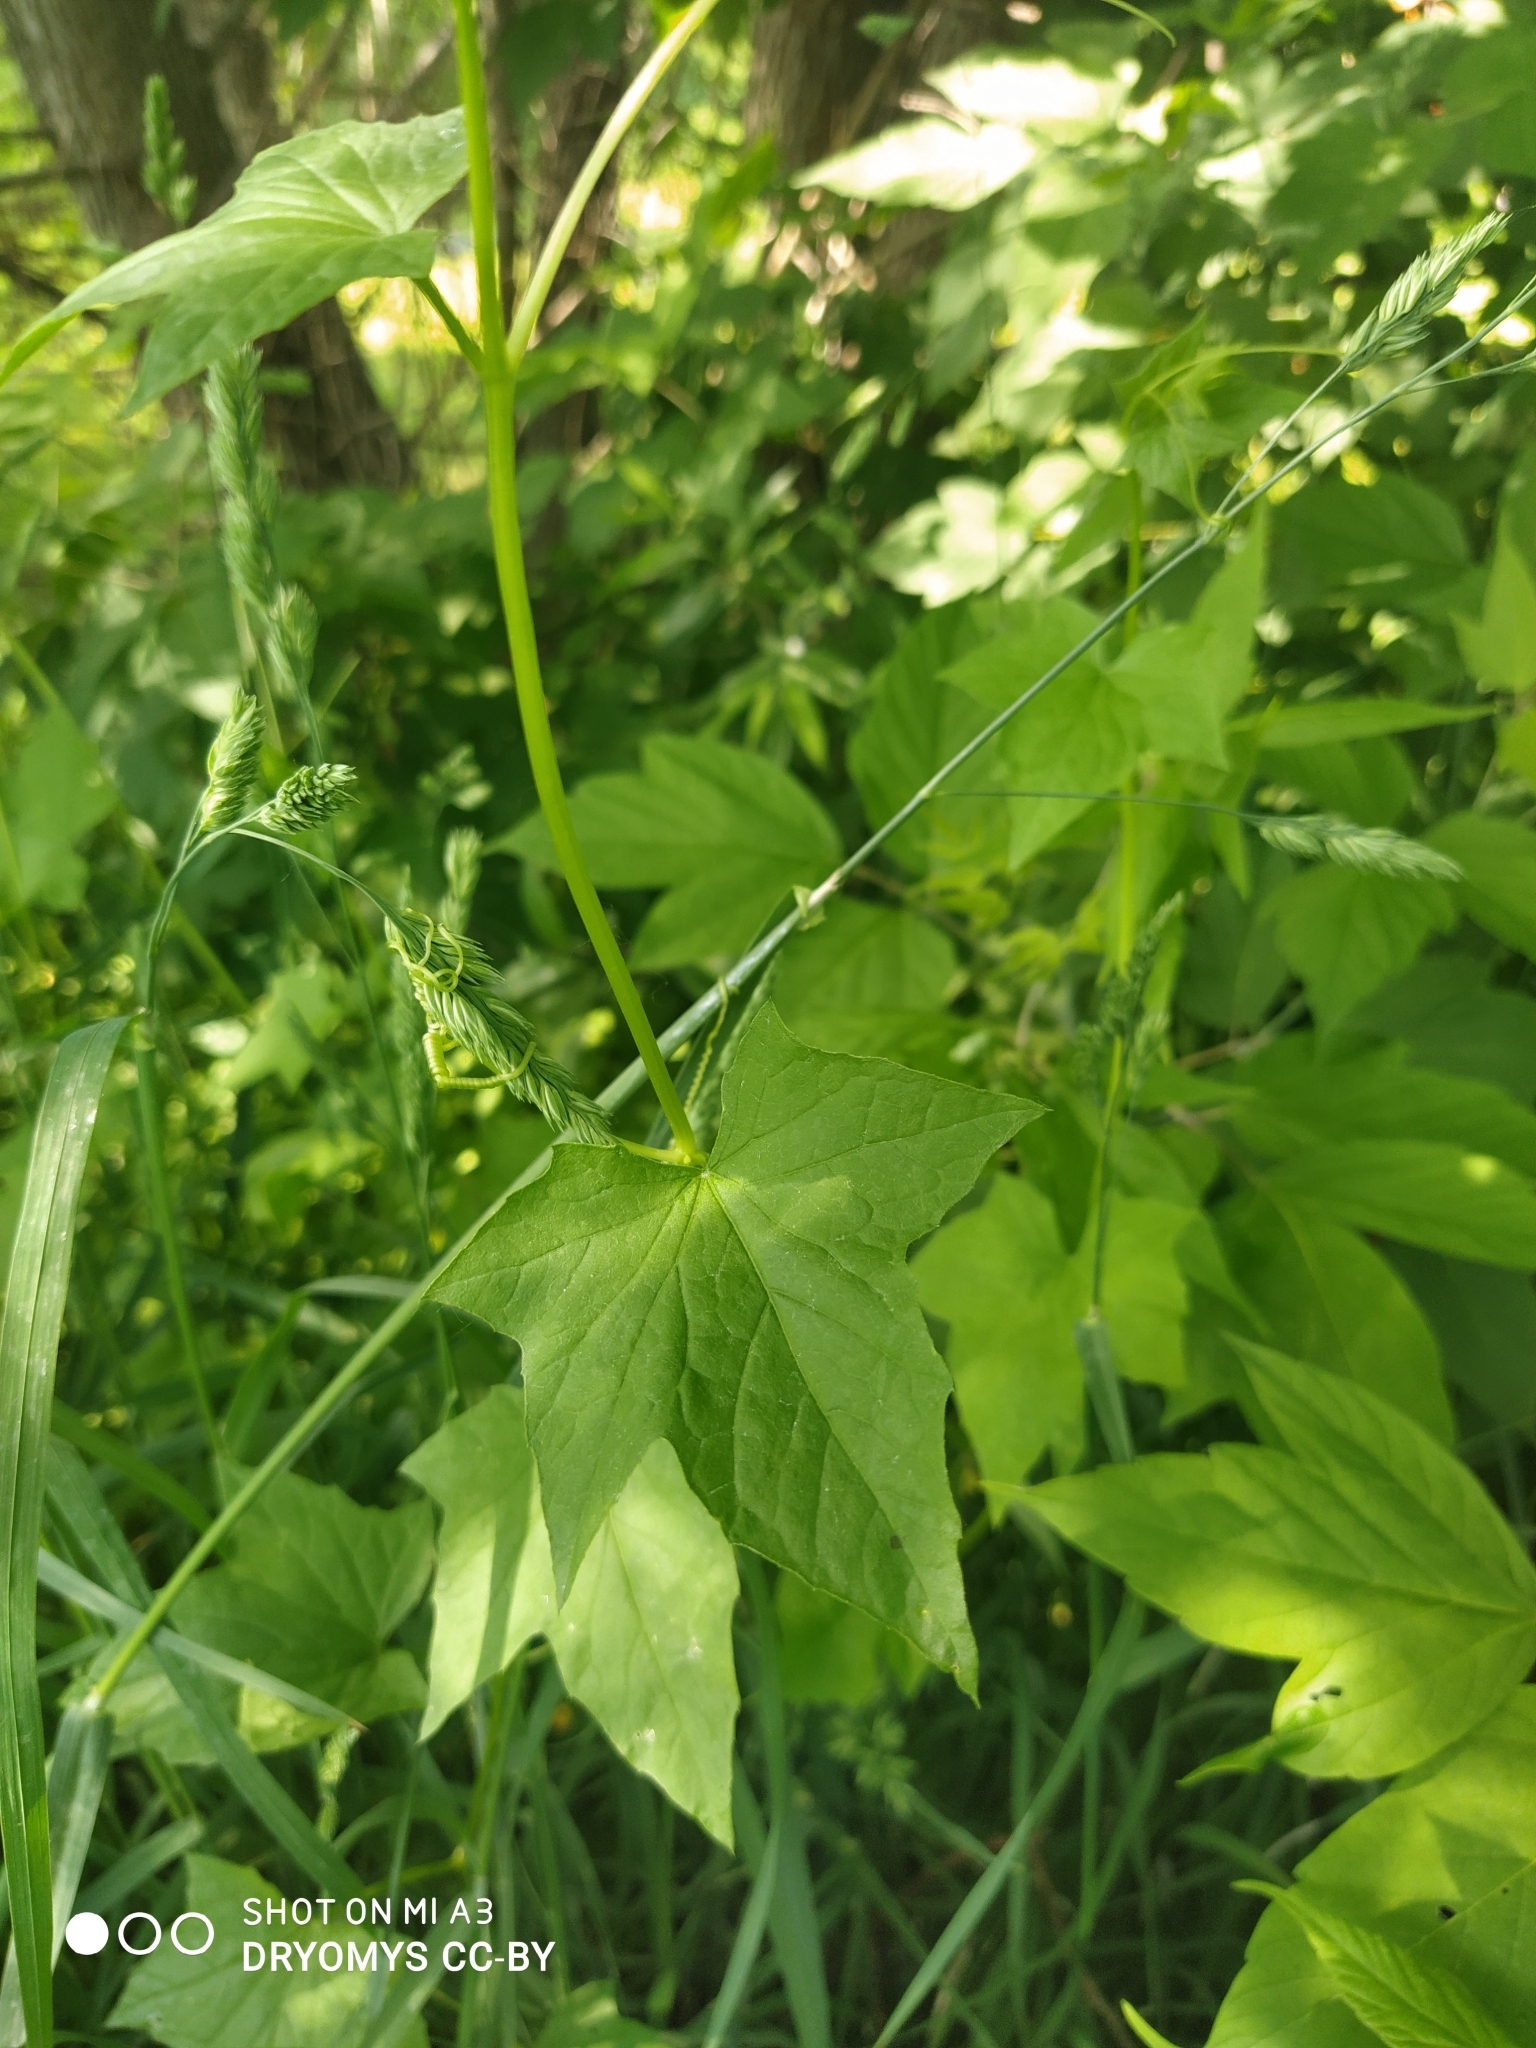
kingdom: Plantae
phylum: Tracheophyta
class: Magnoliopsida
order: Cucurbitales
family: Cucurbitaceae
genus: Echinocystis
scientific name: Echinocystis lobata
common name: Wild cucumber
